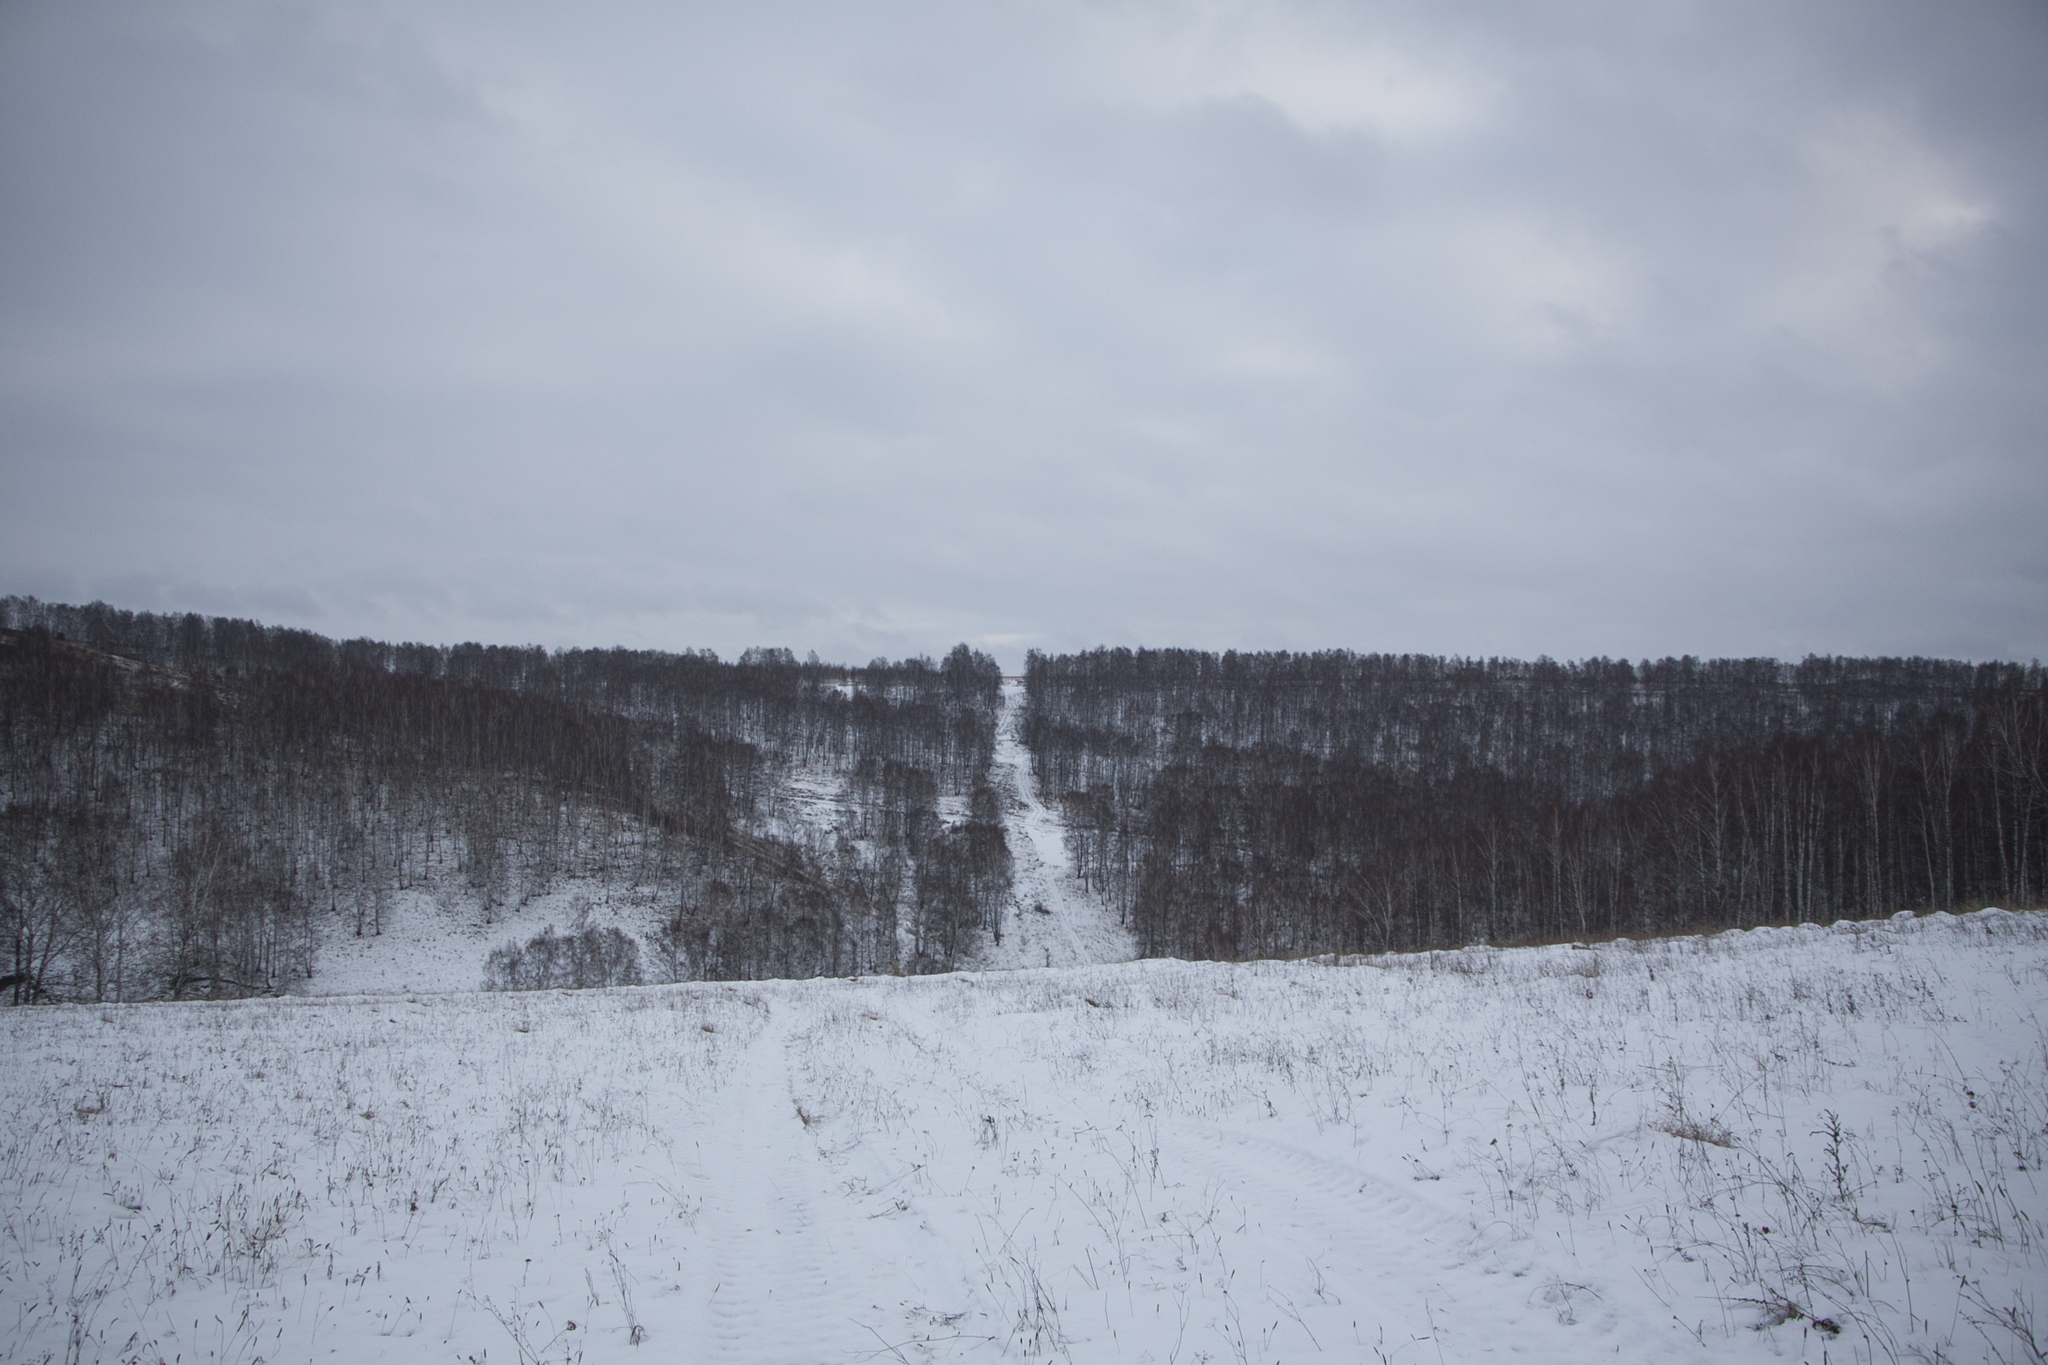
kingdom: Plantae
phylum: Tracheophyta
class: Magnoliopsida
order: Fagales
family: Betulaceae
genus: Betula
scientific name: Betula pendula
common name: Silver birch
